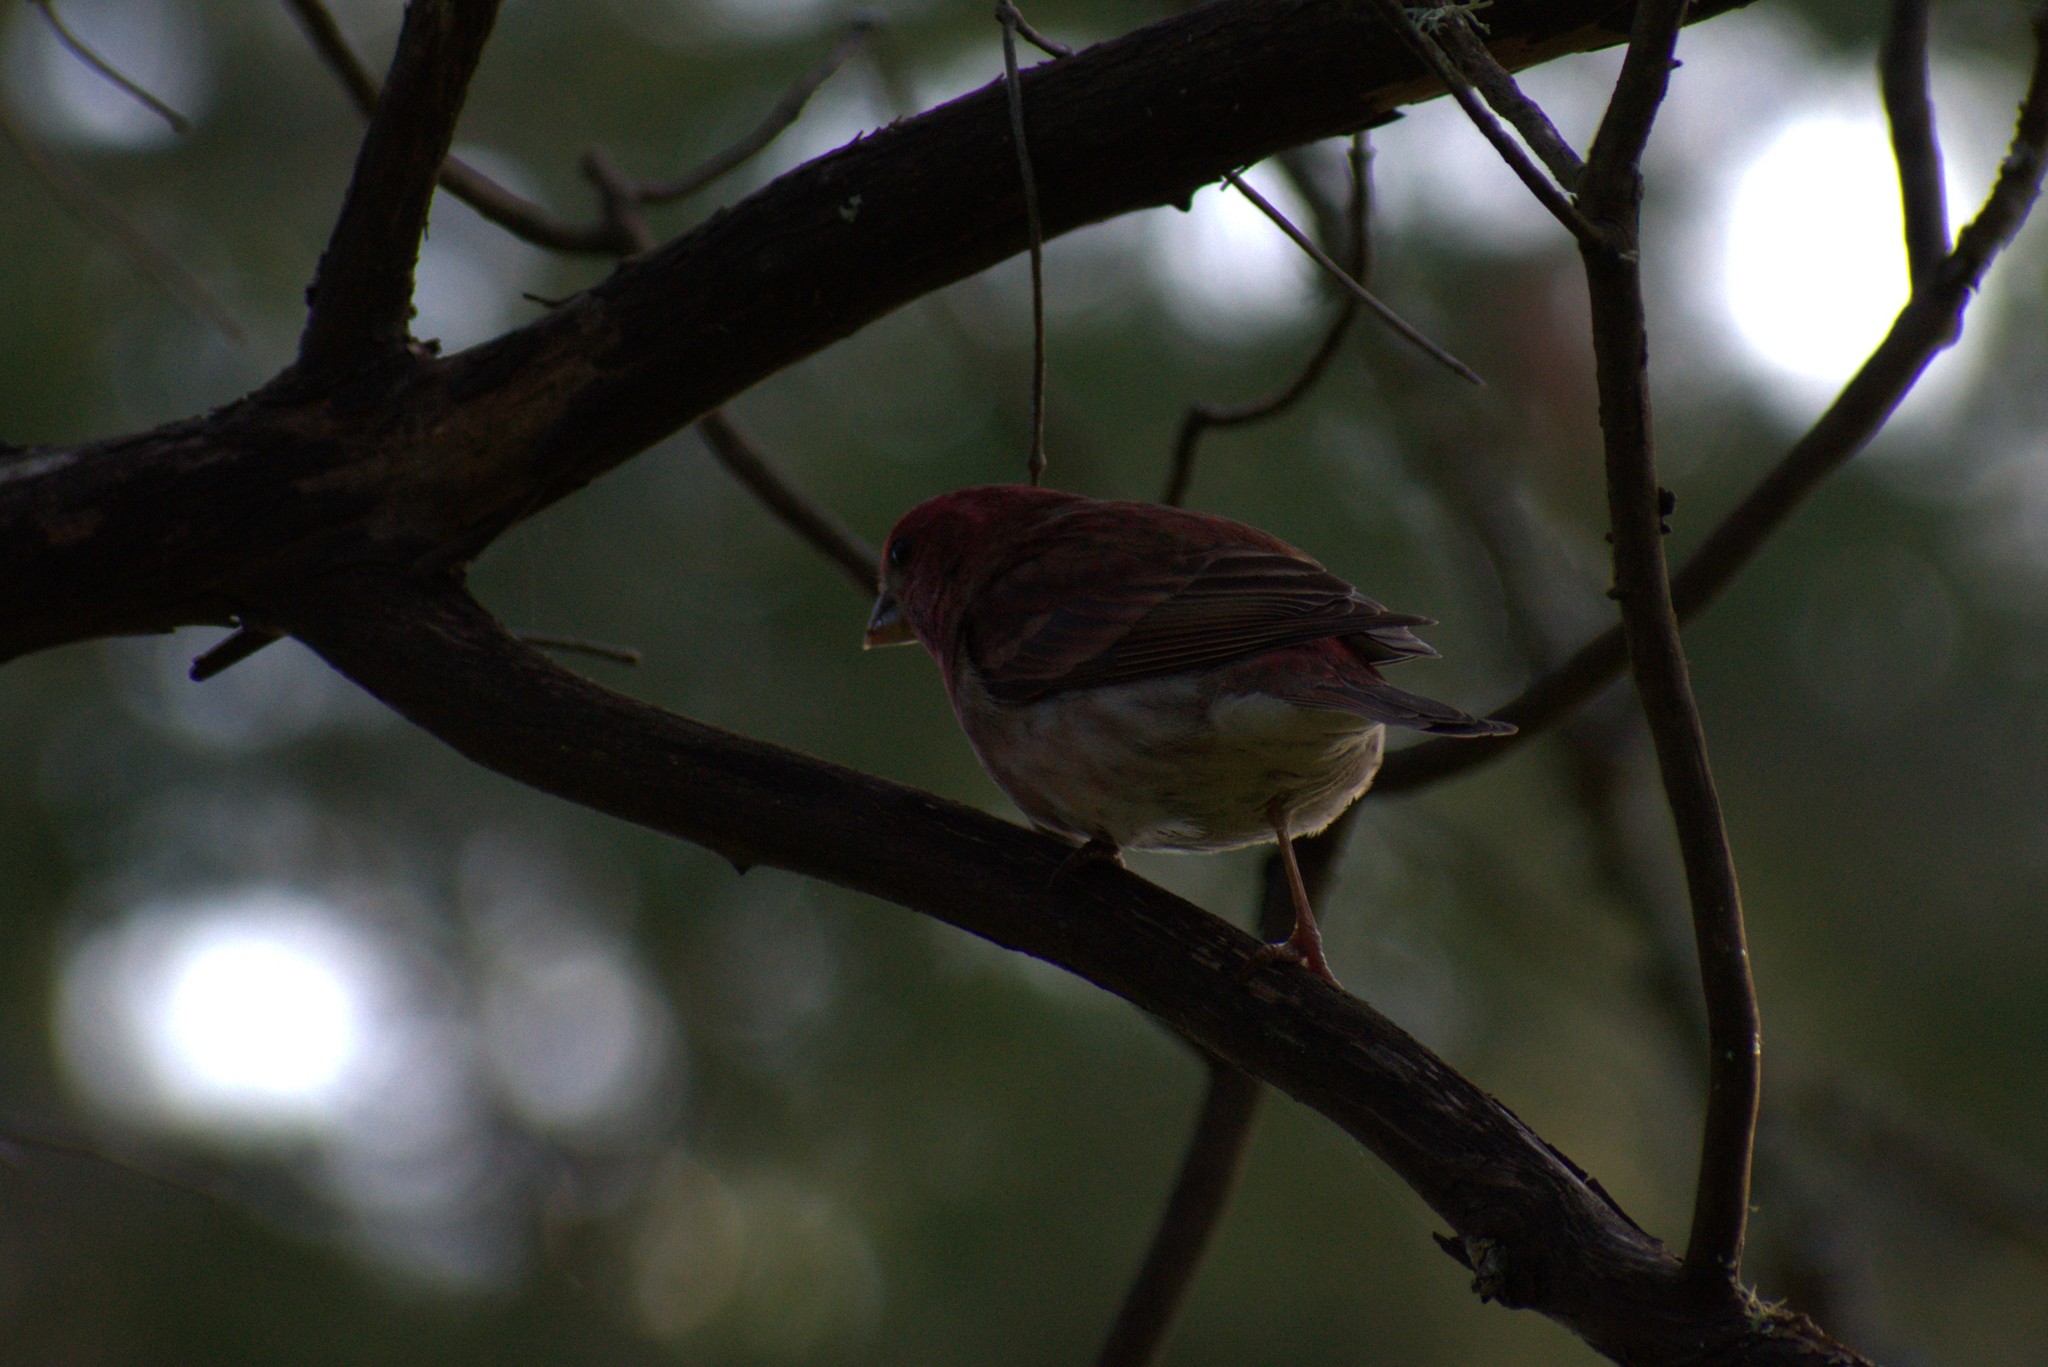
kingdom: Animalia
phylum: Chordata
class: Aves
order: Passeriformes
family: Fringillidae
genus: Haemorhous
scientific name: Haemorhous purpureus
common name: Purple finch
